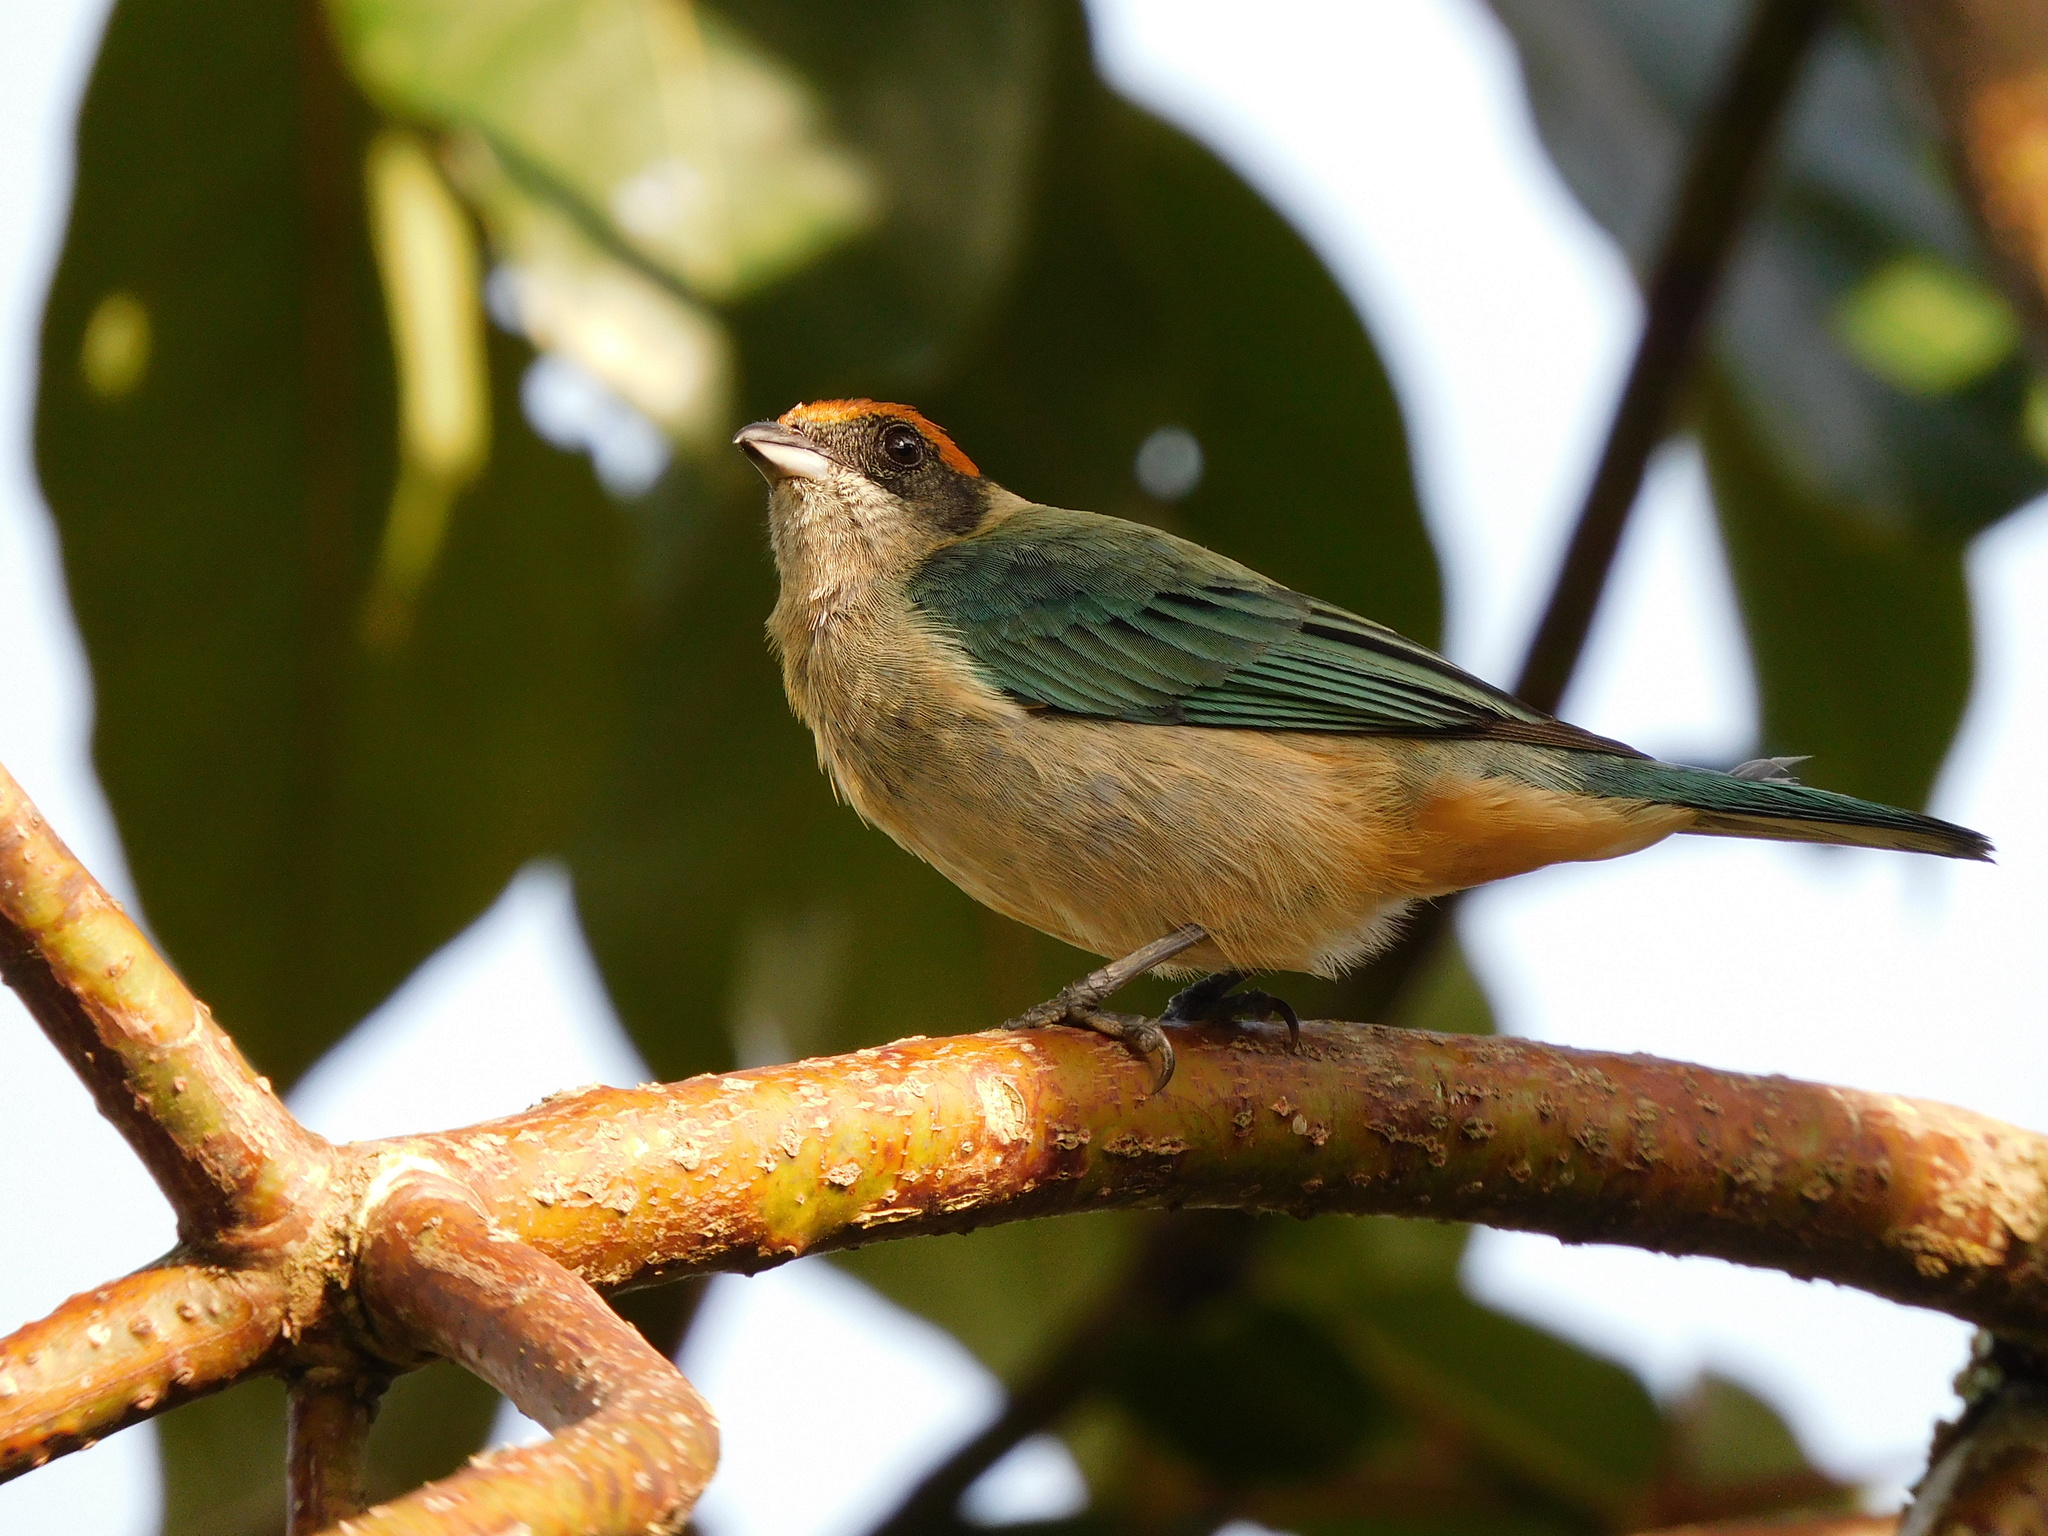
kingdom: Animalia
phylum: Chordata
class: Aves
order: Passeriformes
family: Thraupidae
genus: Stilpnia
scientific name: Stilpnia vitriolina
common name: Scrub tanager
